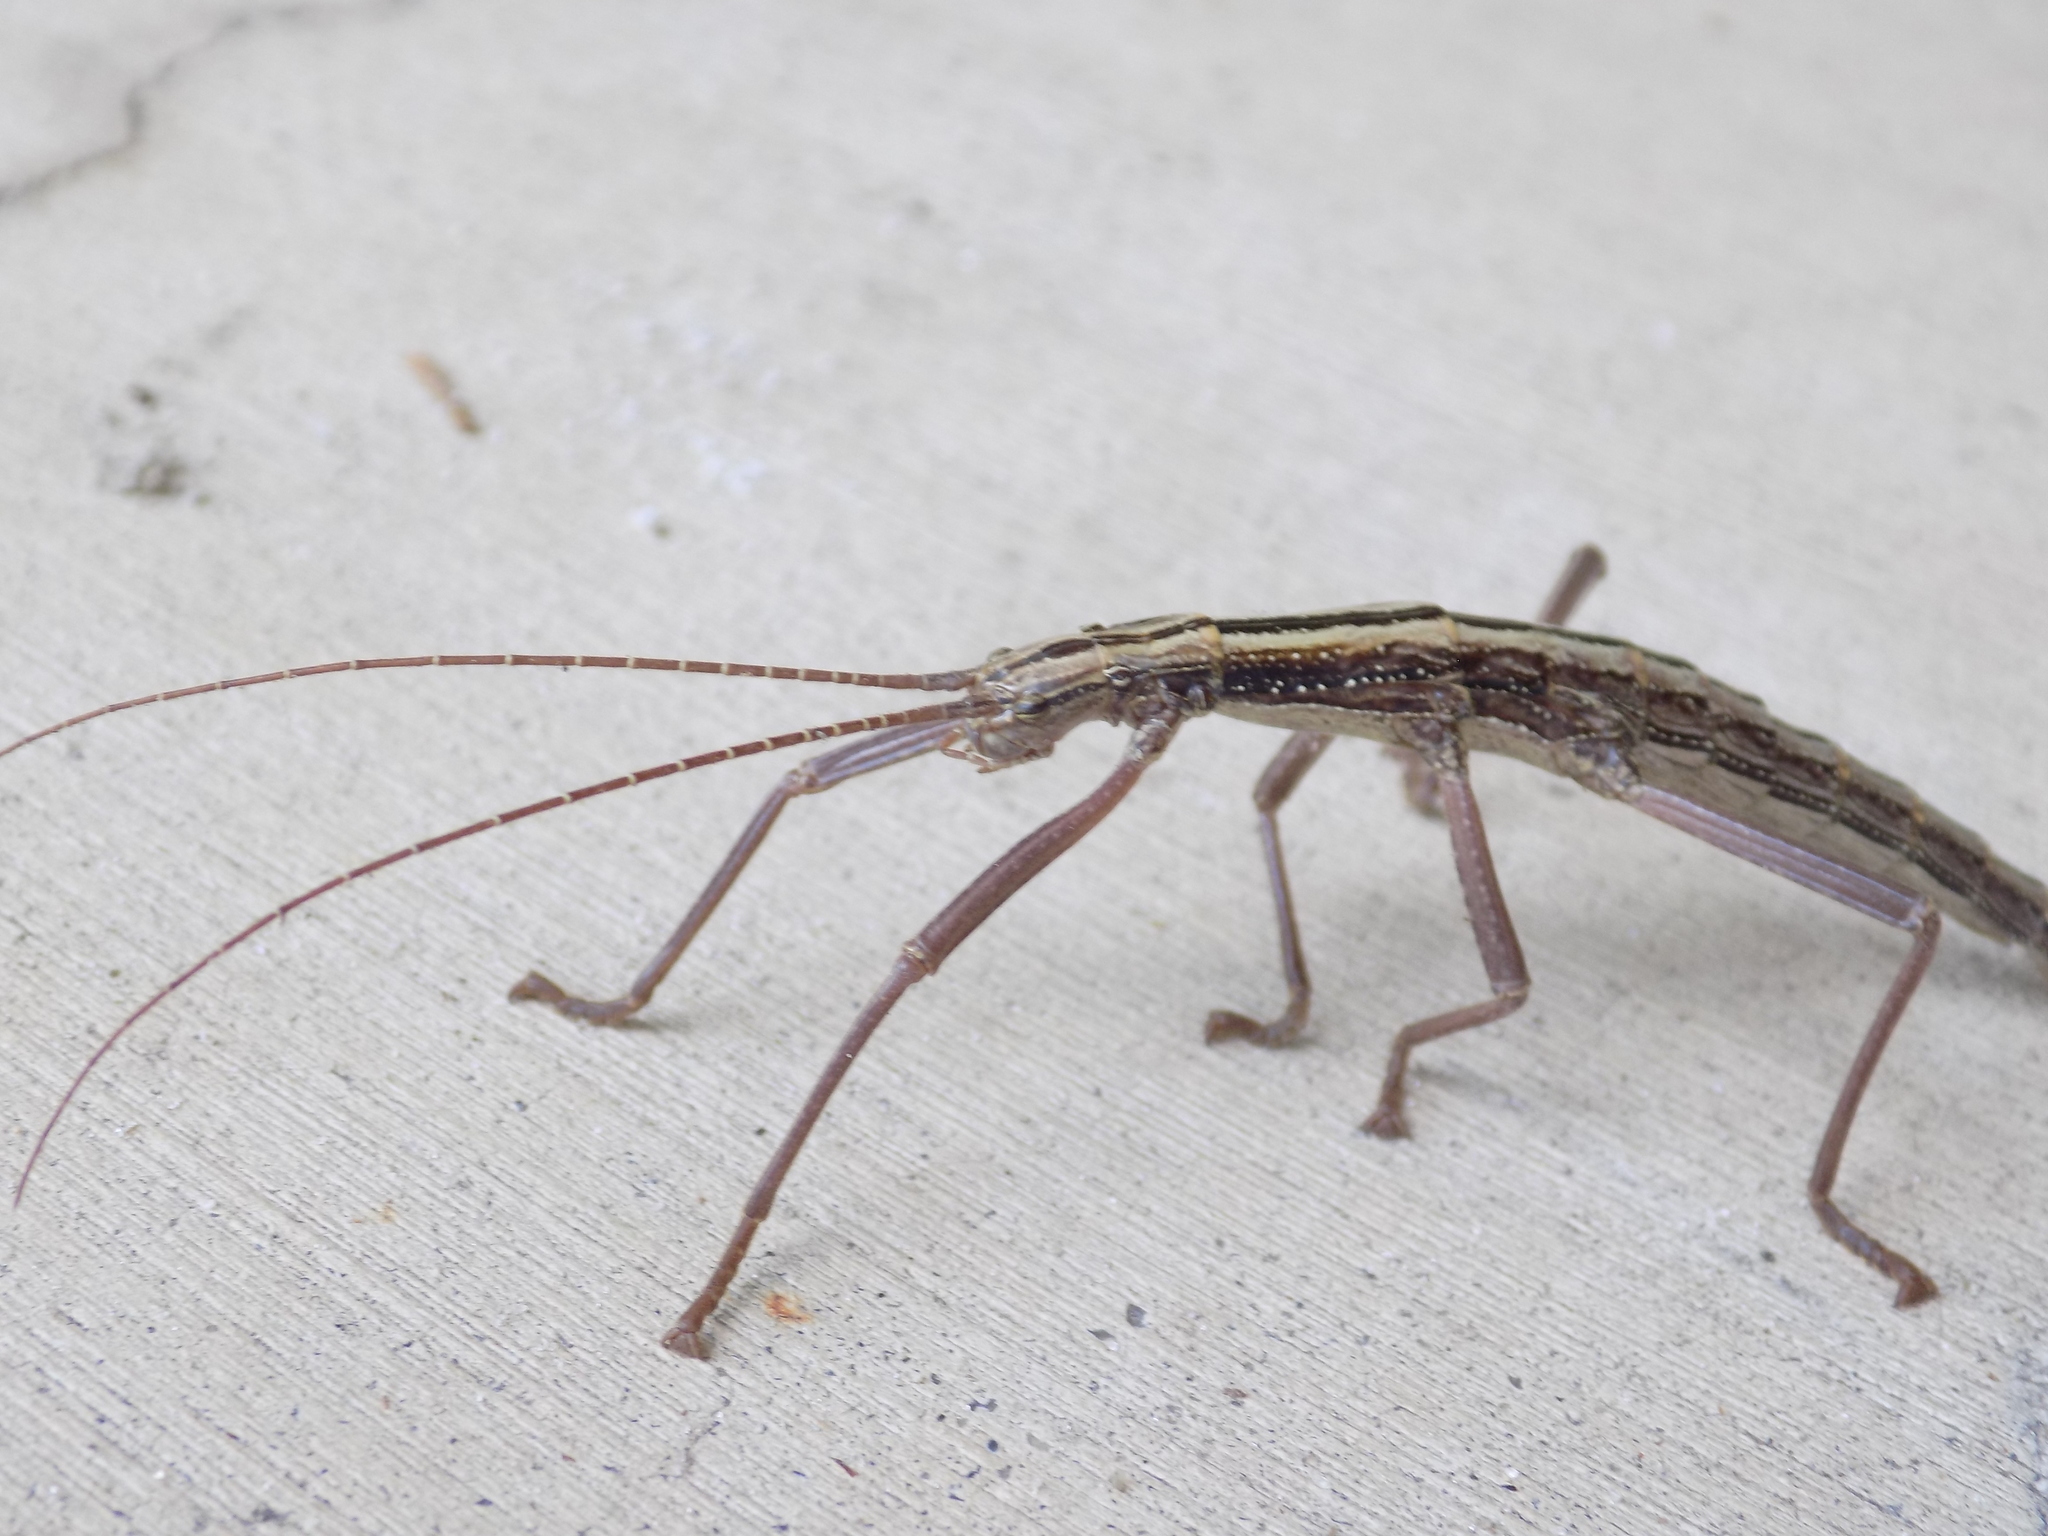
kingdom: Animalia
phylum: Arthropoda
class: Insecta
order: Phasmida
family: Pseudophasmatidae
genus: Anisomorpha
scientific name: Anisomorpha buprestoides
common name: Florida stick insect
